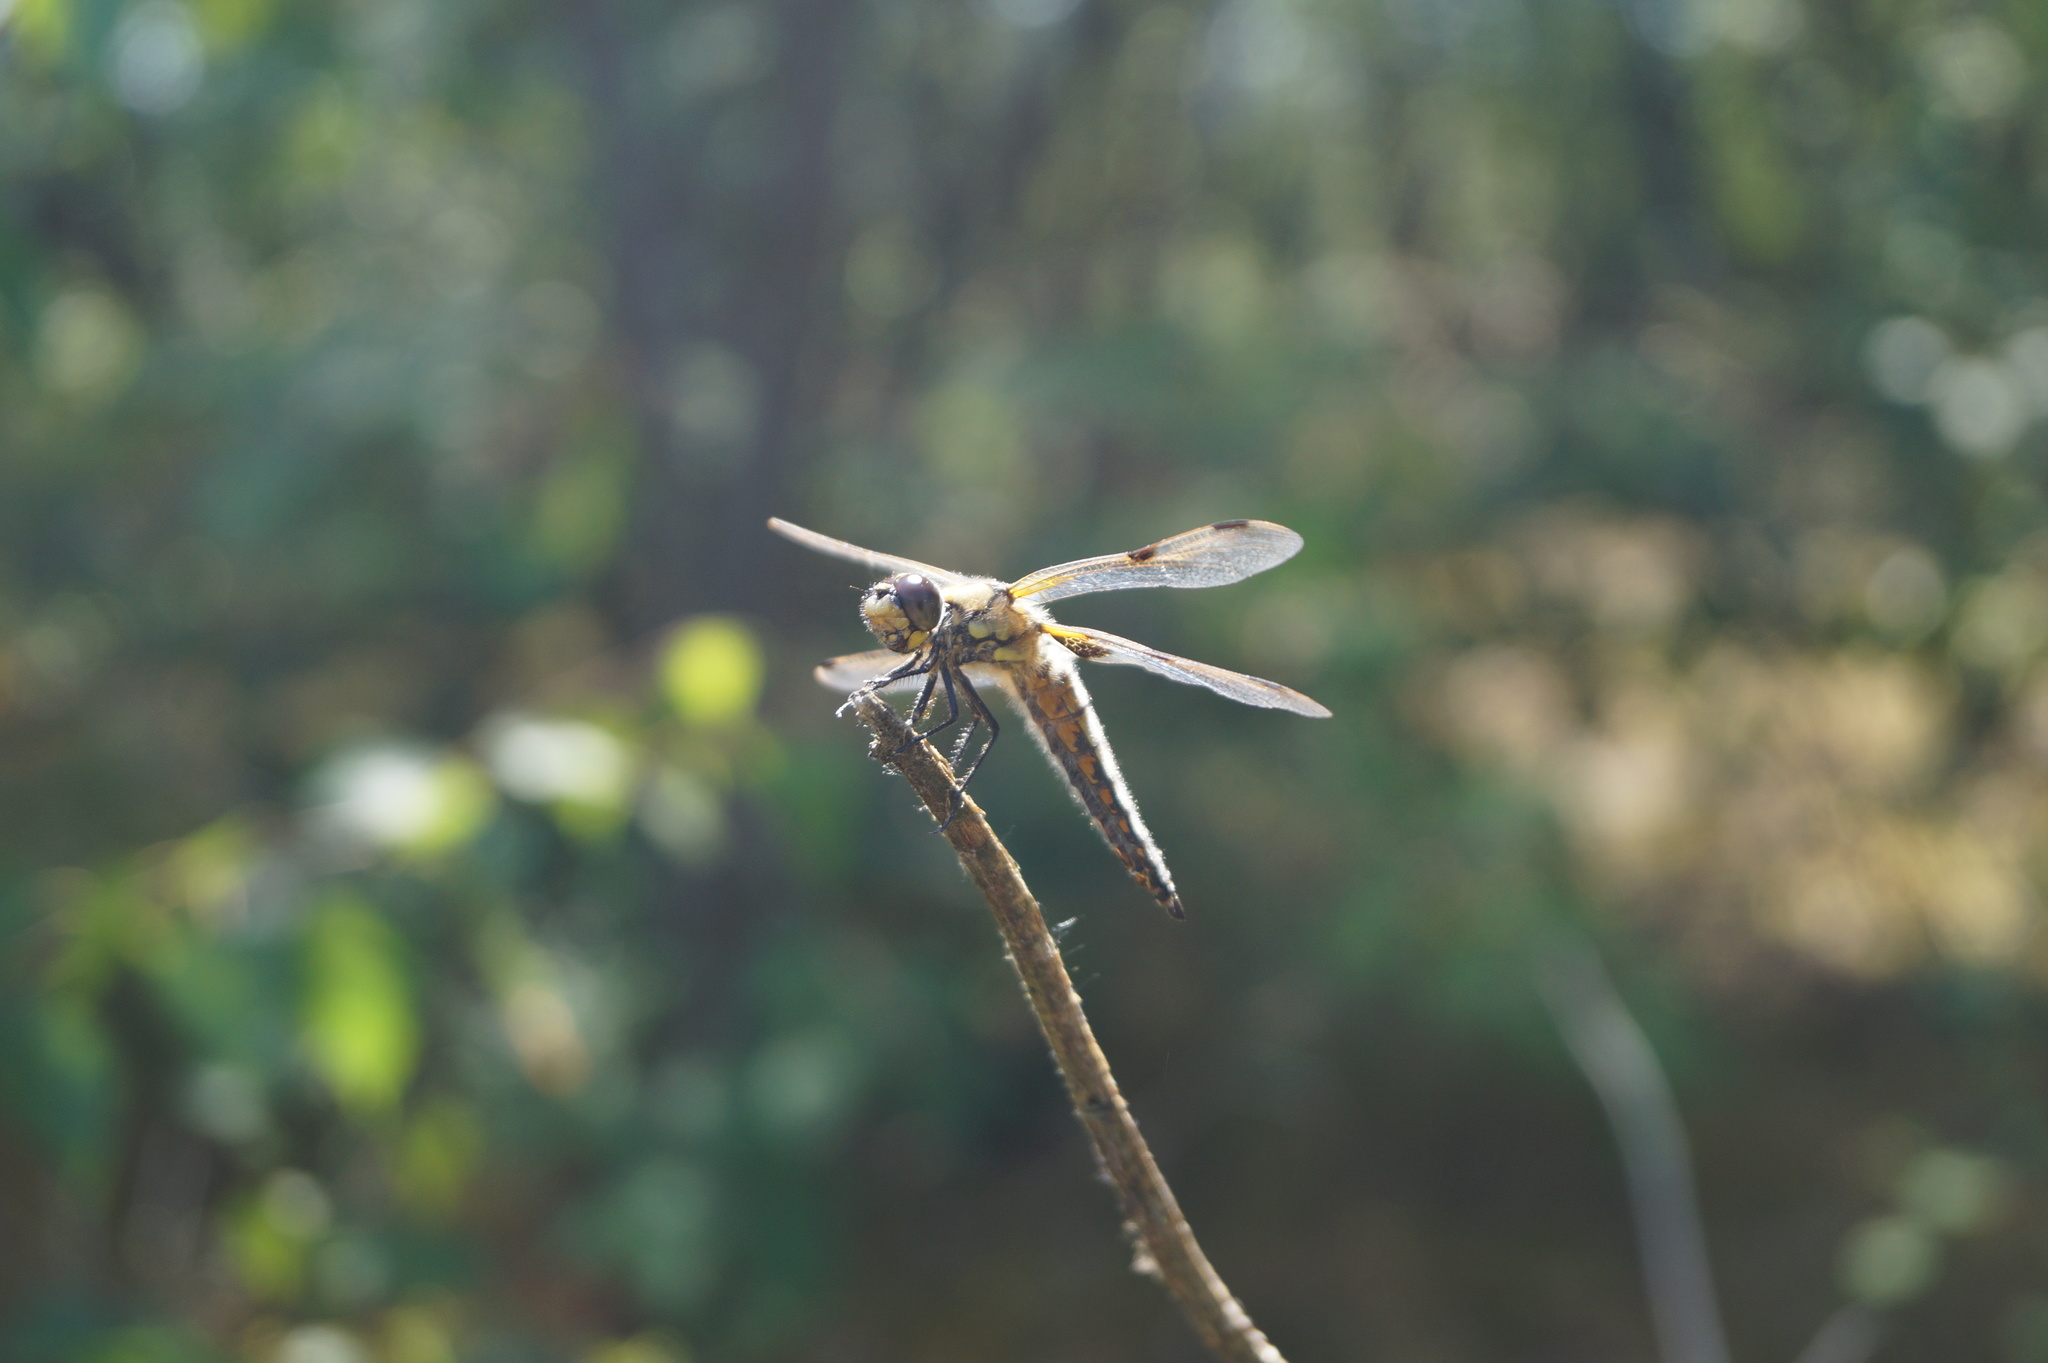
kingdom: Animalia
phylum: Arthropoda
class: Insecta
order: Odonata
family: Libellulidae
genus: Libellula
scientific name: Libellula quadrimaculata
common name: Four-spotted chaser
